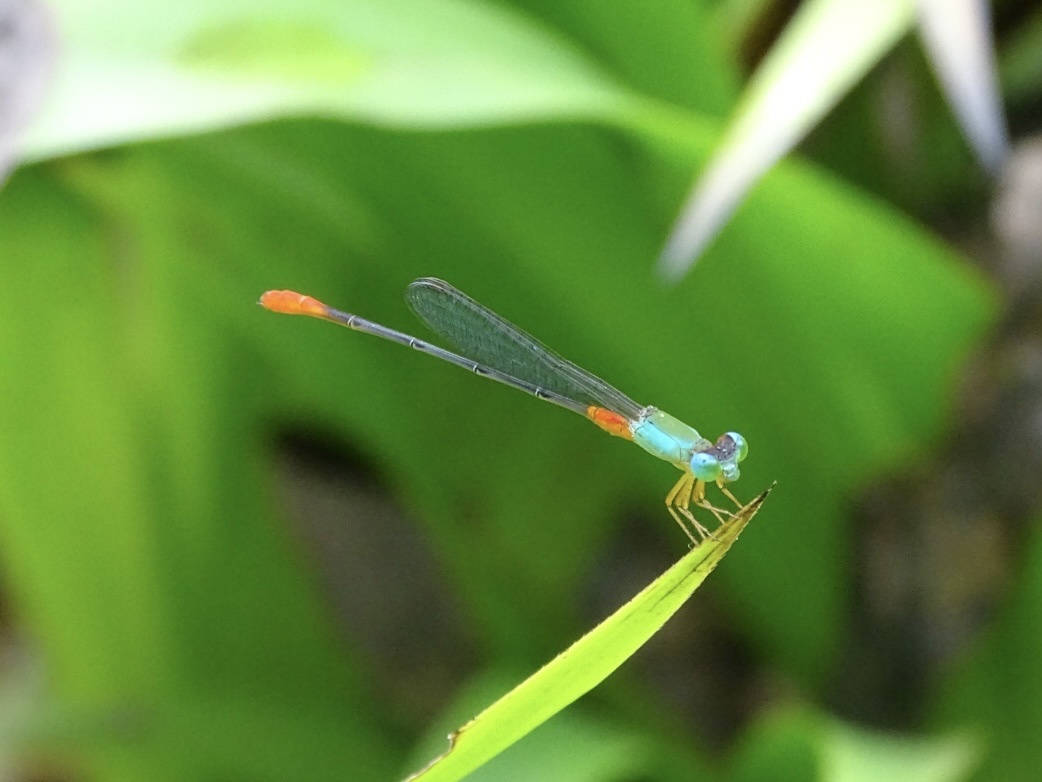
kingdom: Animalia
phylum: Arthropoda
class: Insecta
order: Odonata
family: Coenagrionidae
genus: Ceriagrion
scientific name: Ceriagrion cerinorubellum
